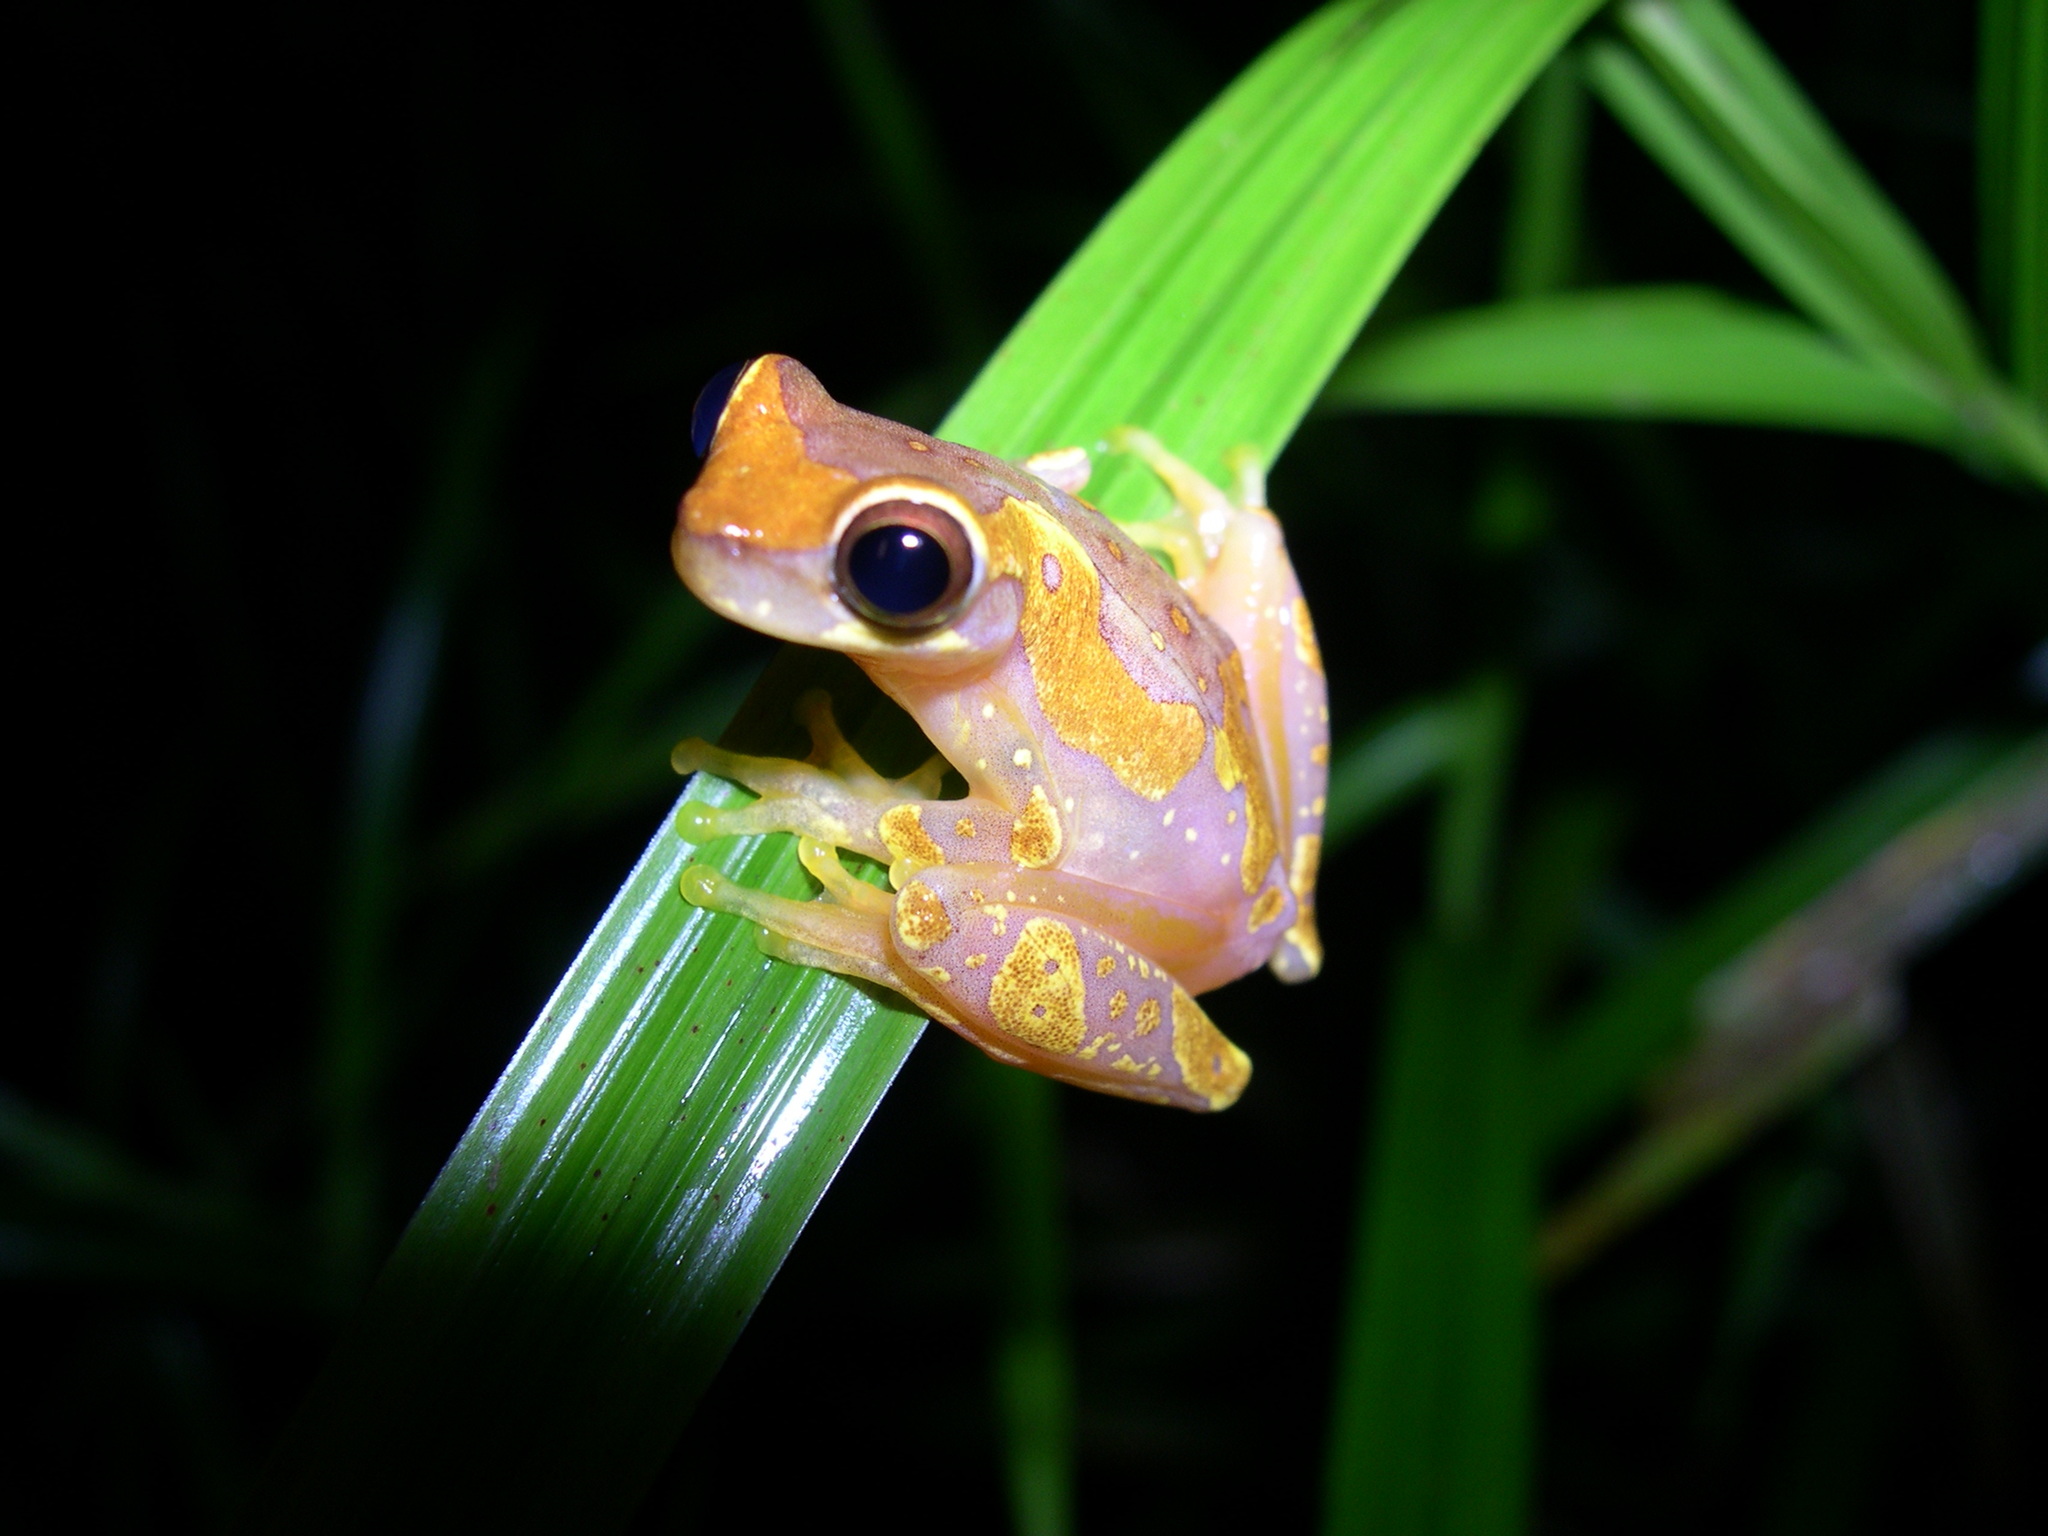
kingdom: Animalia
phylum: Chordata
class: Amphibia
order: Anura
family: Hylidae
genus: Dendropsophus
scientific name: Dendropsophus ebraccatus
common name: Hourglass treefrog
